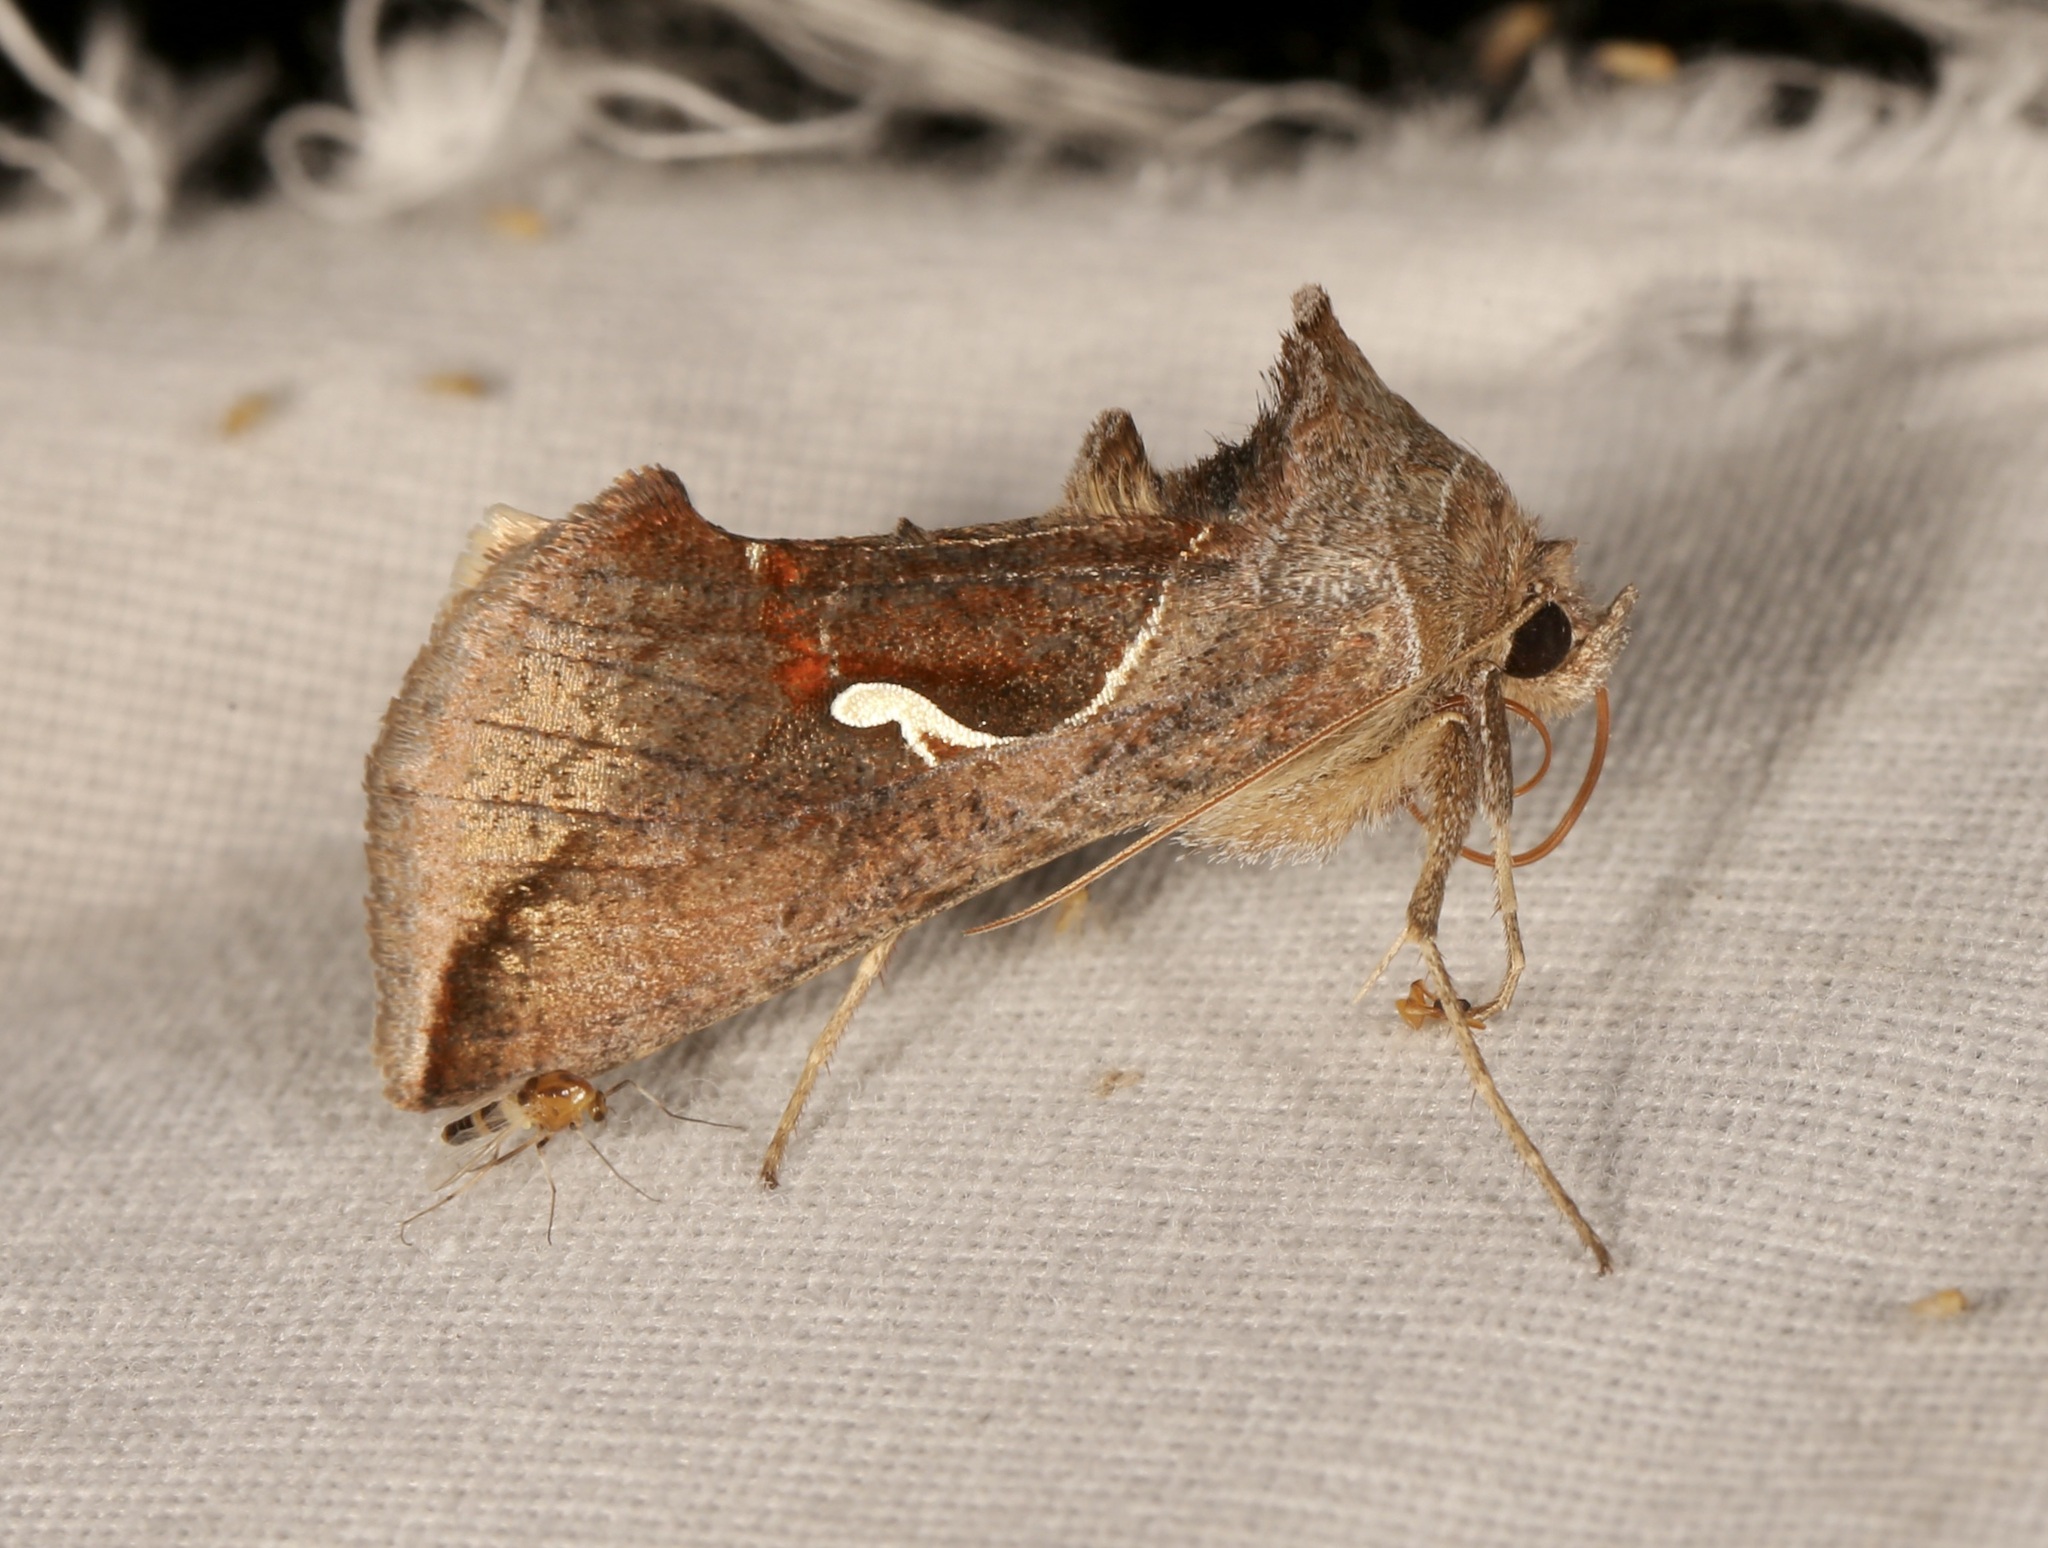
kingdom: Animalia
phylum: Arthropoda
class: Insecta
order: Lepidoptera
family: Noctuidae
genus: Anagrapha
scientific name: Anagrapha falcifera
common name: Celery looper
